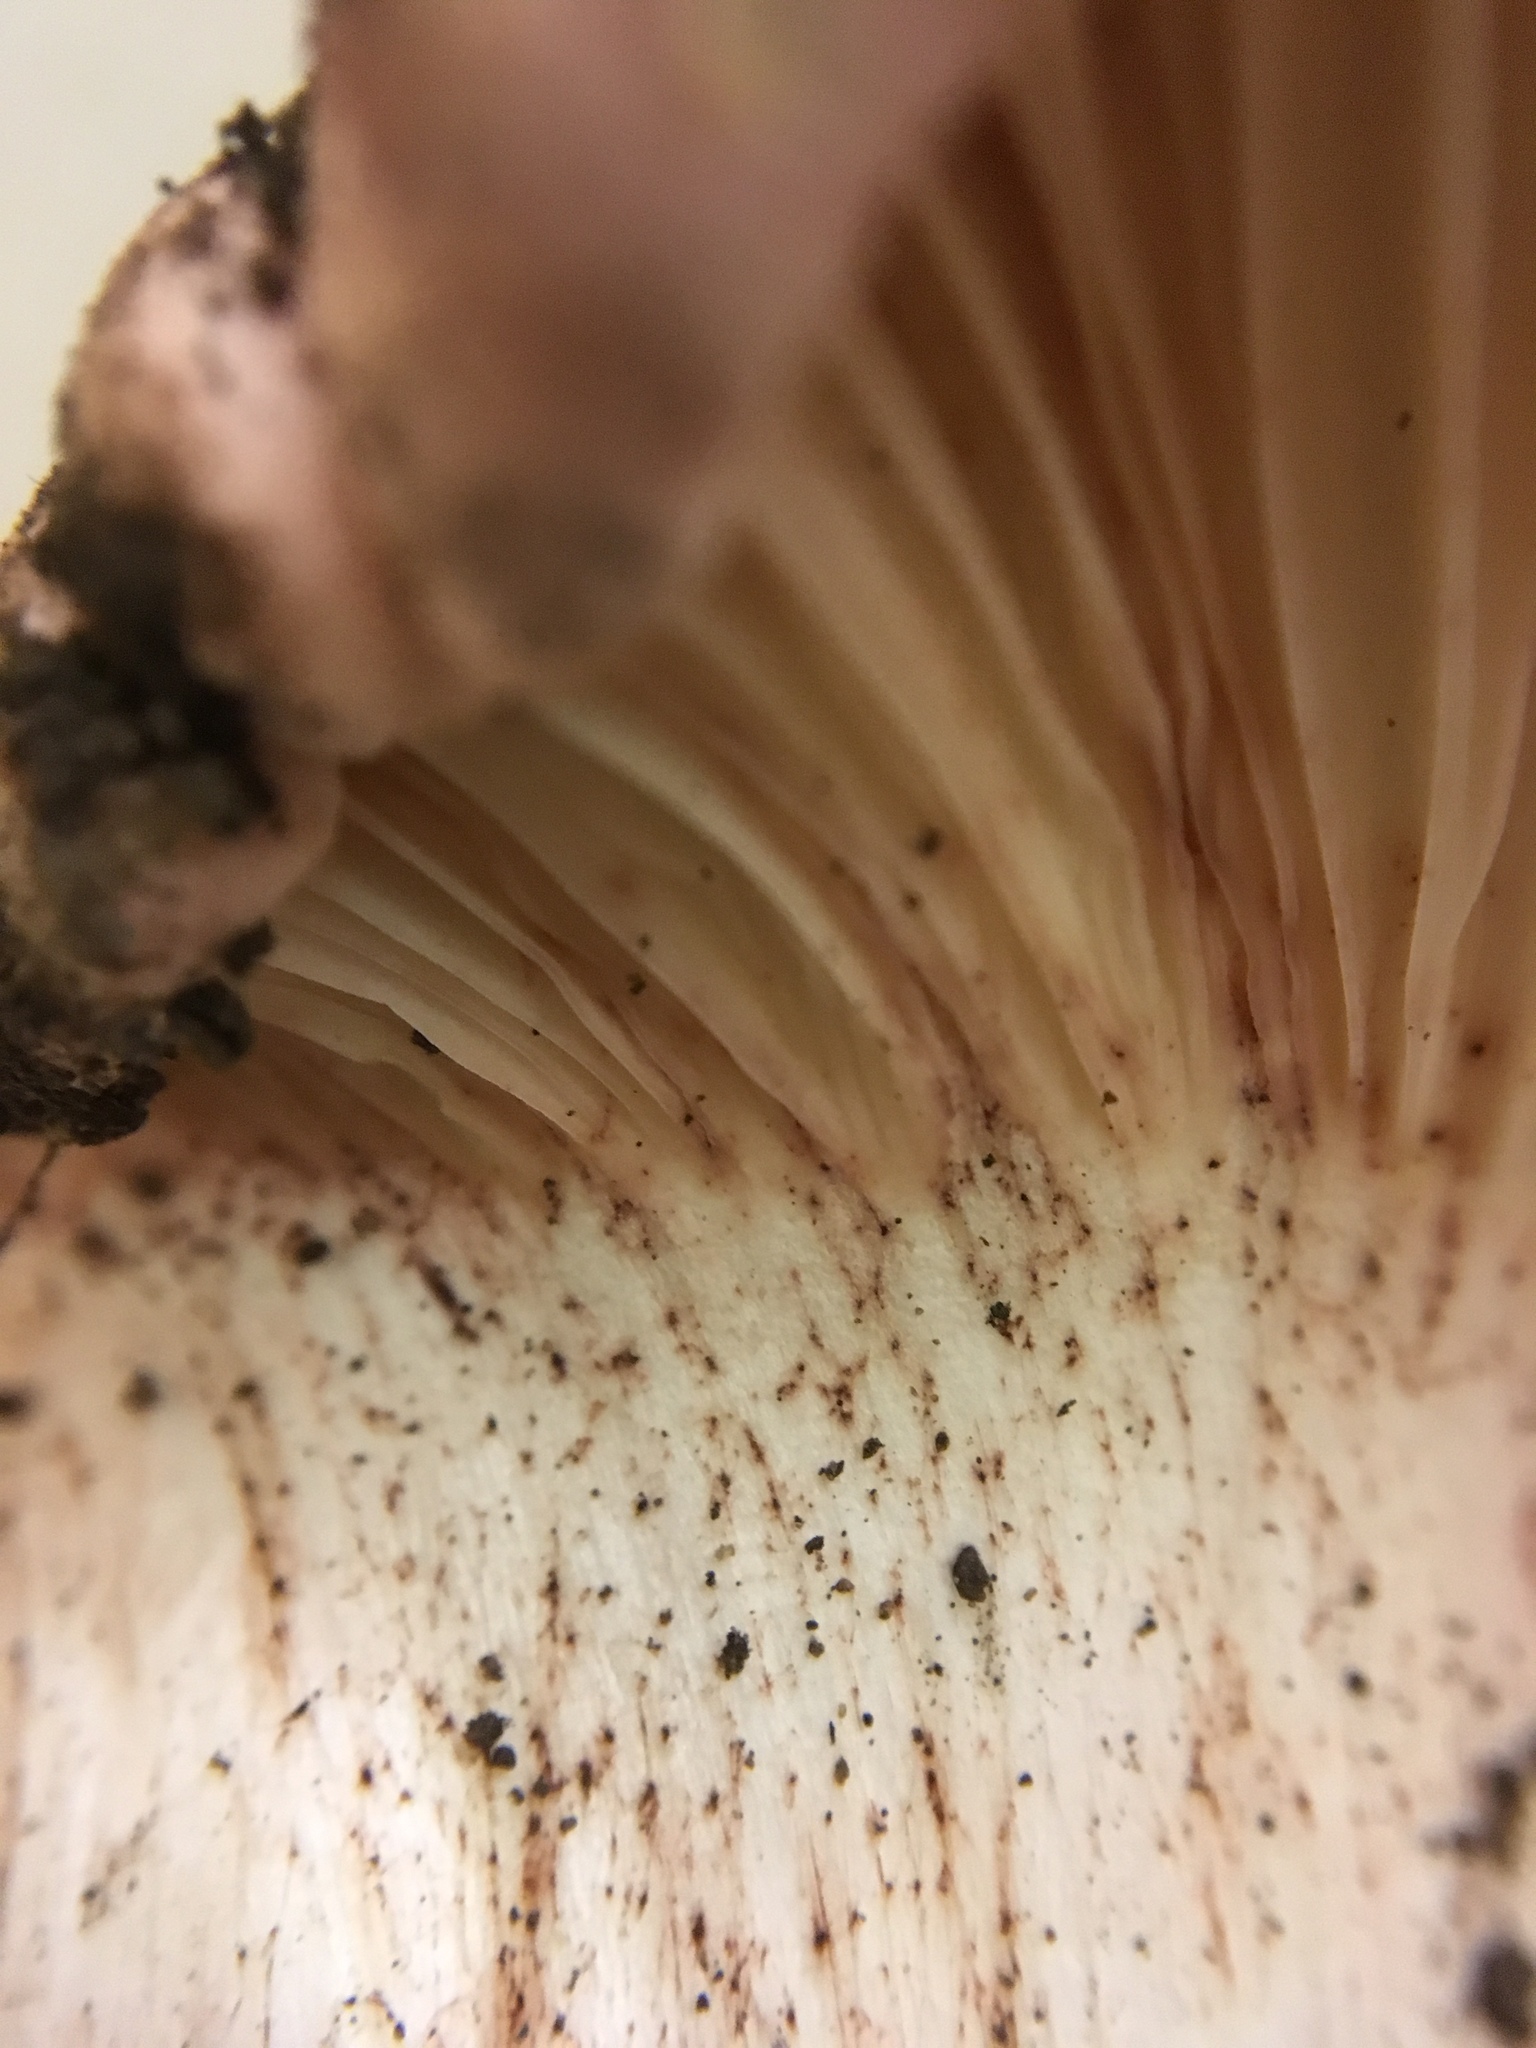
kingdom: Fungi
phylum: Basidiomycota
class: Agaricomycetes
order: Agaricales
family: Hygrophoraceae
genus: Hygrophorus
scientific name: Hygrophorus russula
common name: Pinkmottle woodwax
